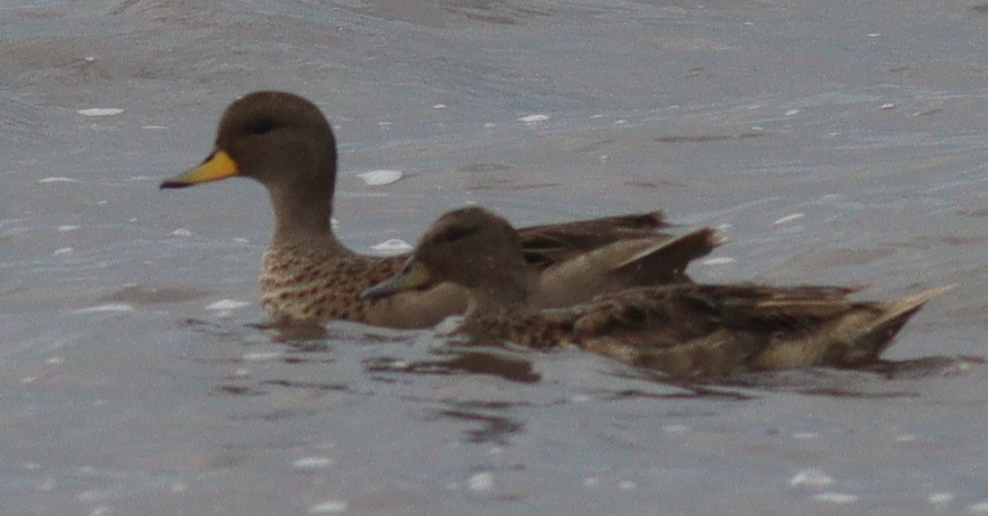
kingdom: Animalia
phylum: Chordata
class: Aves
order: Anseriformes
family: Anatidae
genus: Anas
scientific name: Anas flavirostris
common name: Yellow-billed teal
